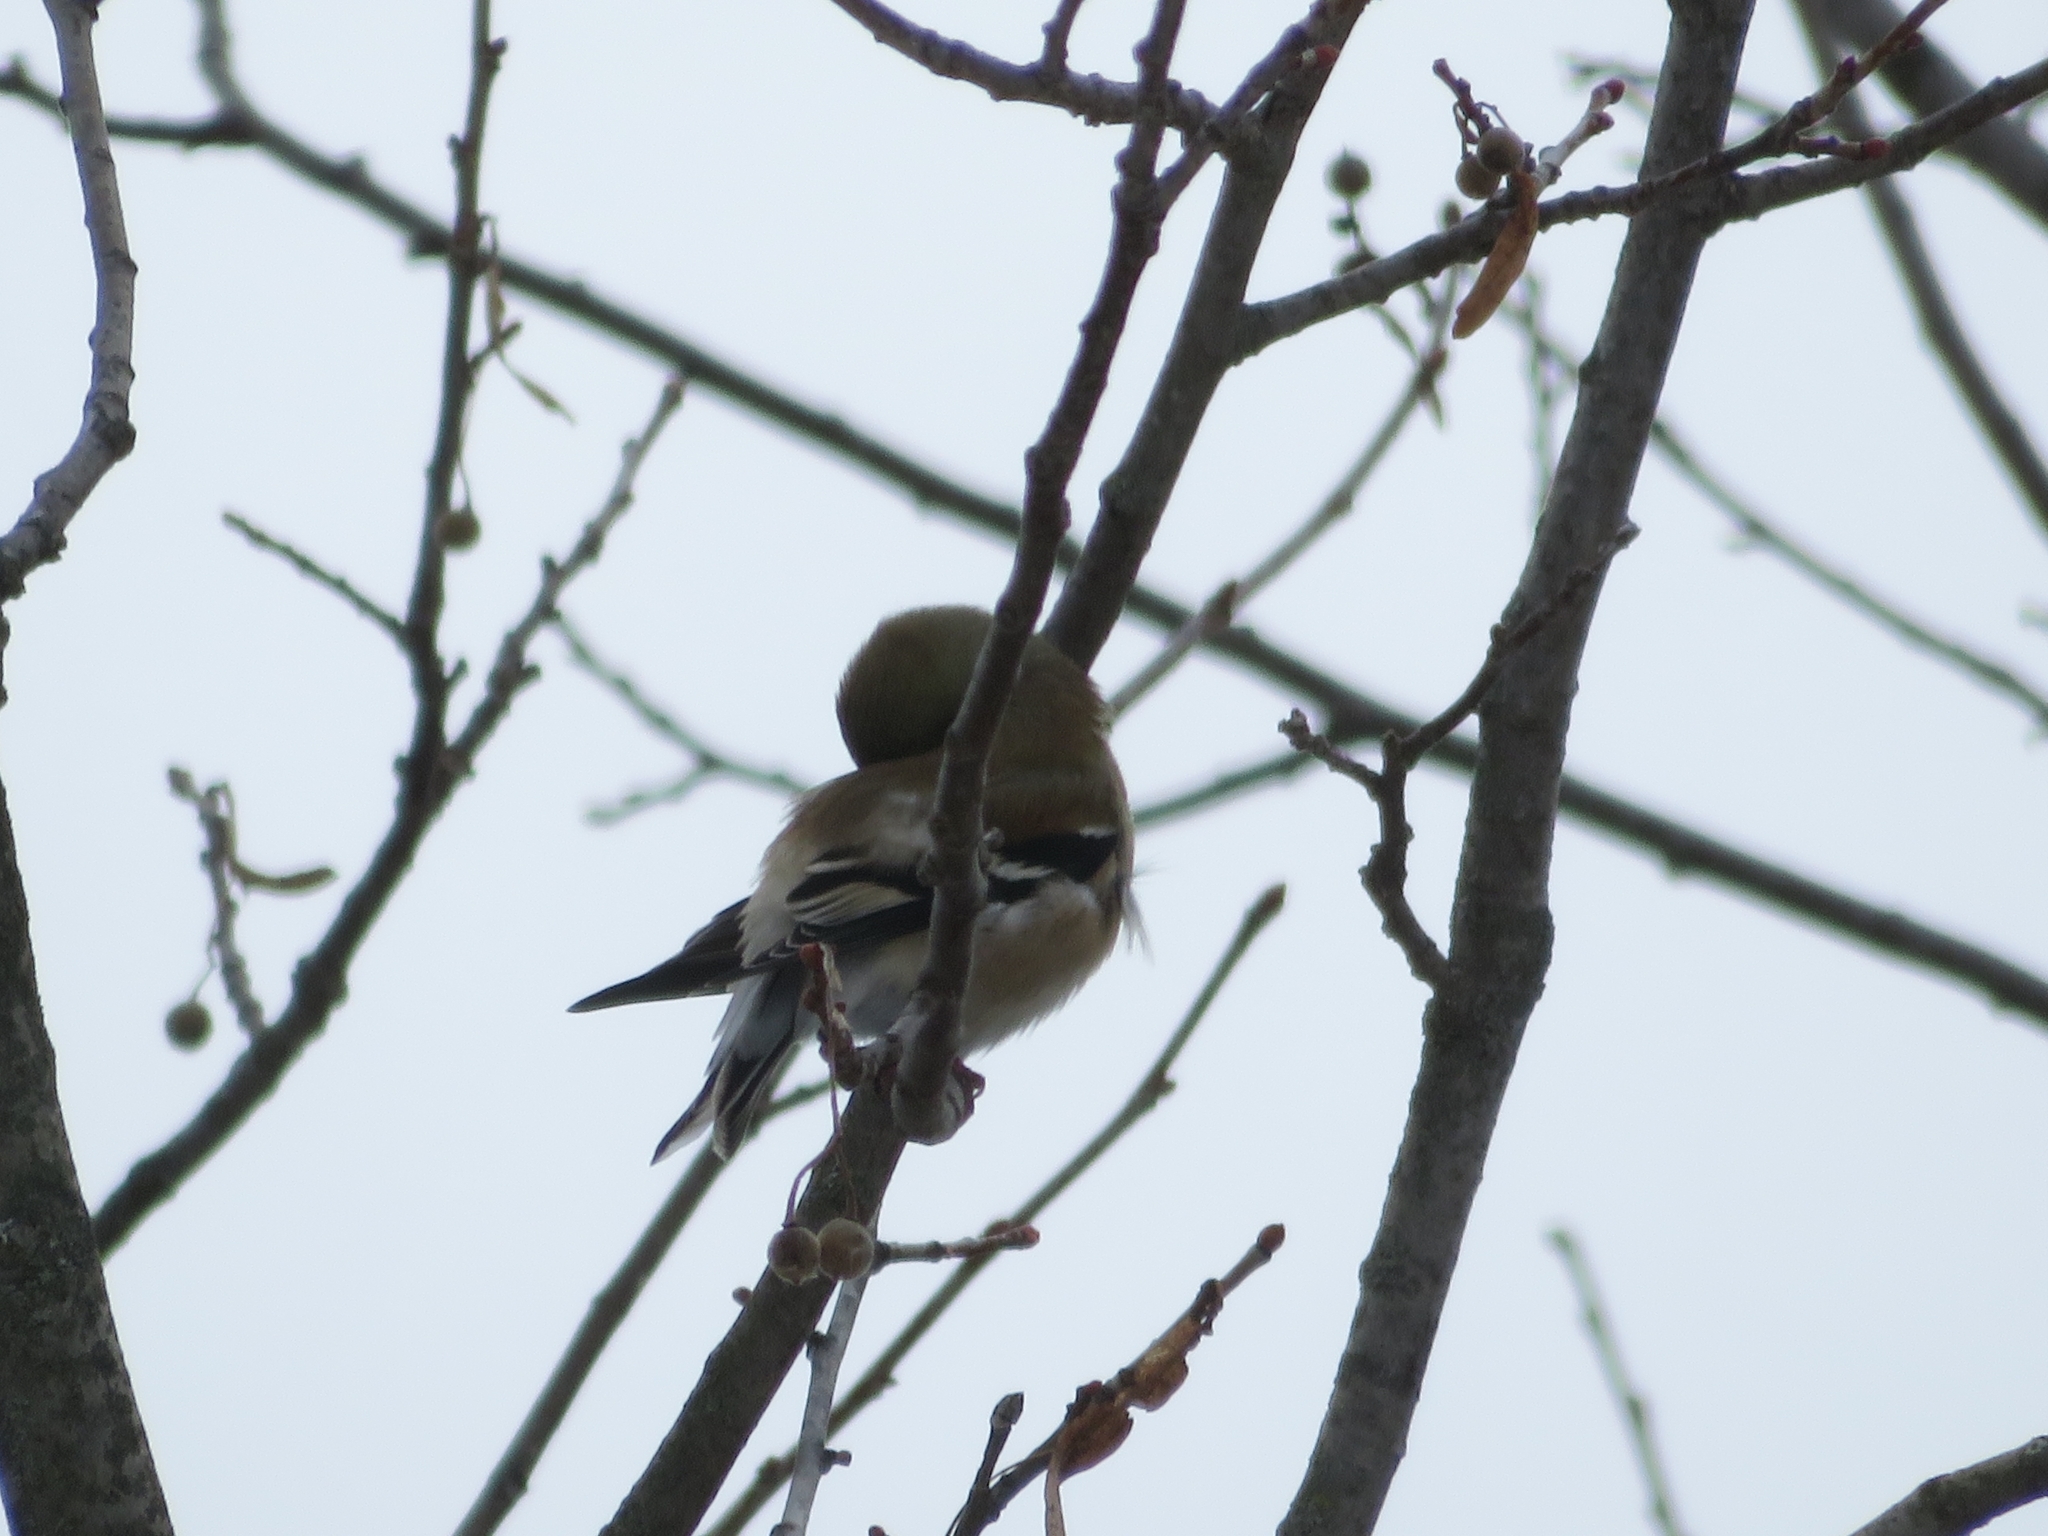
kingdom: Animalia
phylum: Chordata
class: Aves
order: Passeriformes
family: Fringillidae
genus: Spinus
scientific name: Spinus tristis
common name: American goldfinch
